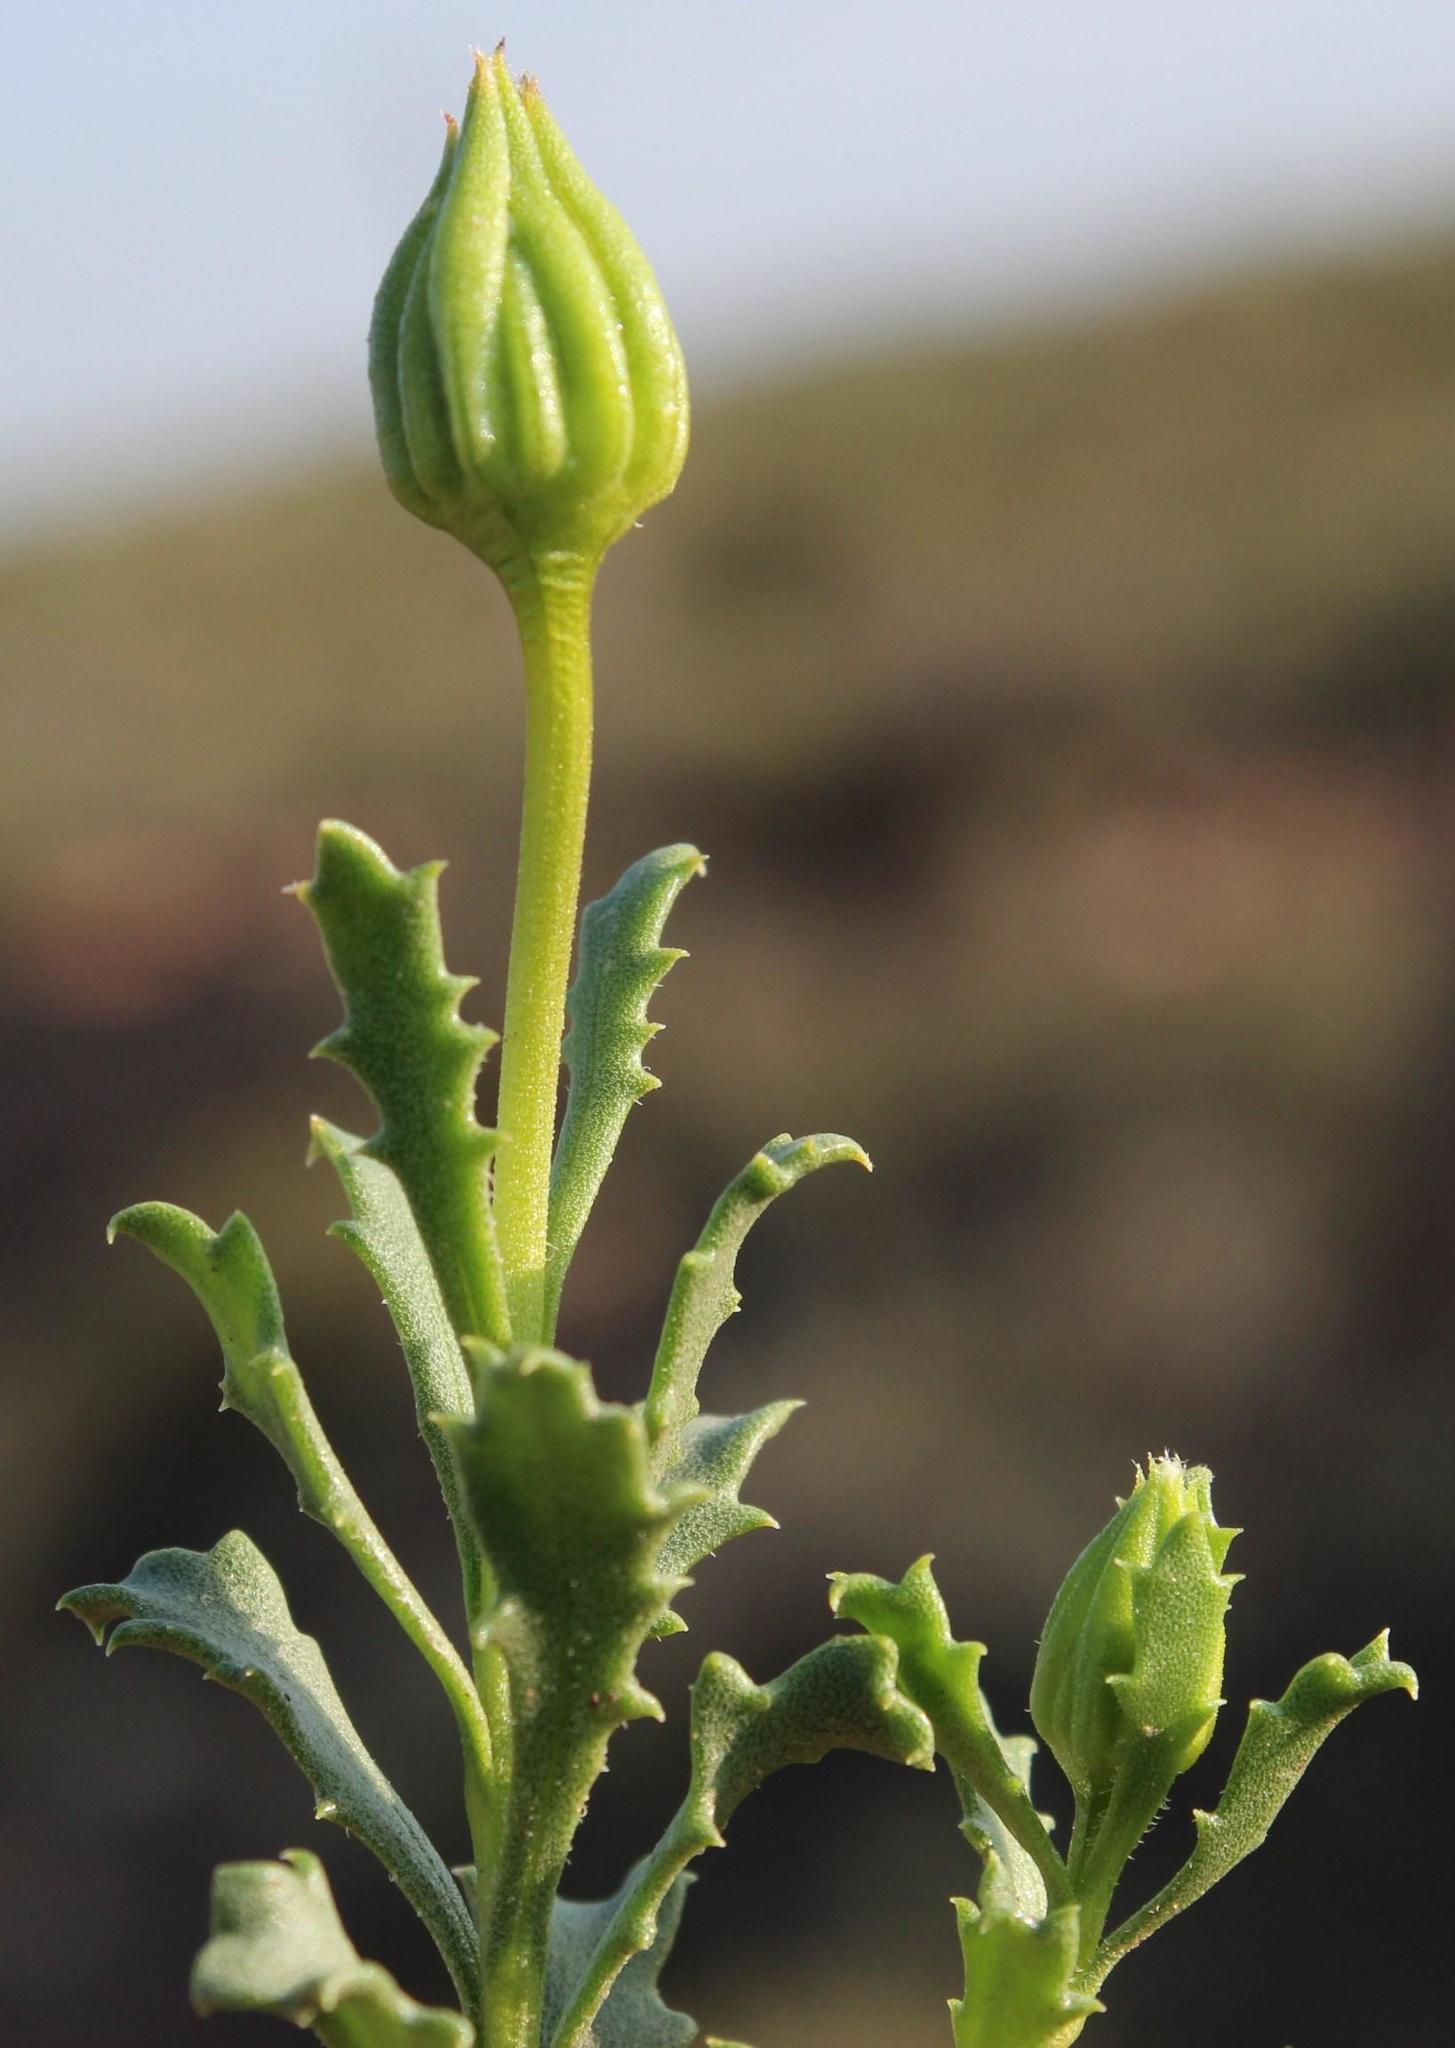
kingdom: Plantae
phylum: Tracheophyta
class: Magnoliopsida
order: Asterales
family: Asteraceae
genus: Dimorphotheca
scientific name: Dimorphotheca cuneata
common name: Daisy
